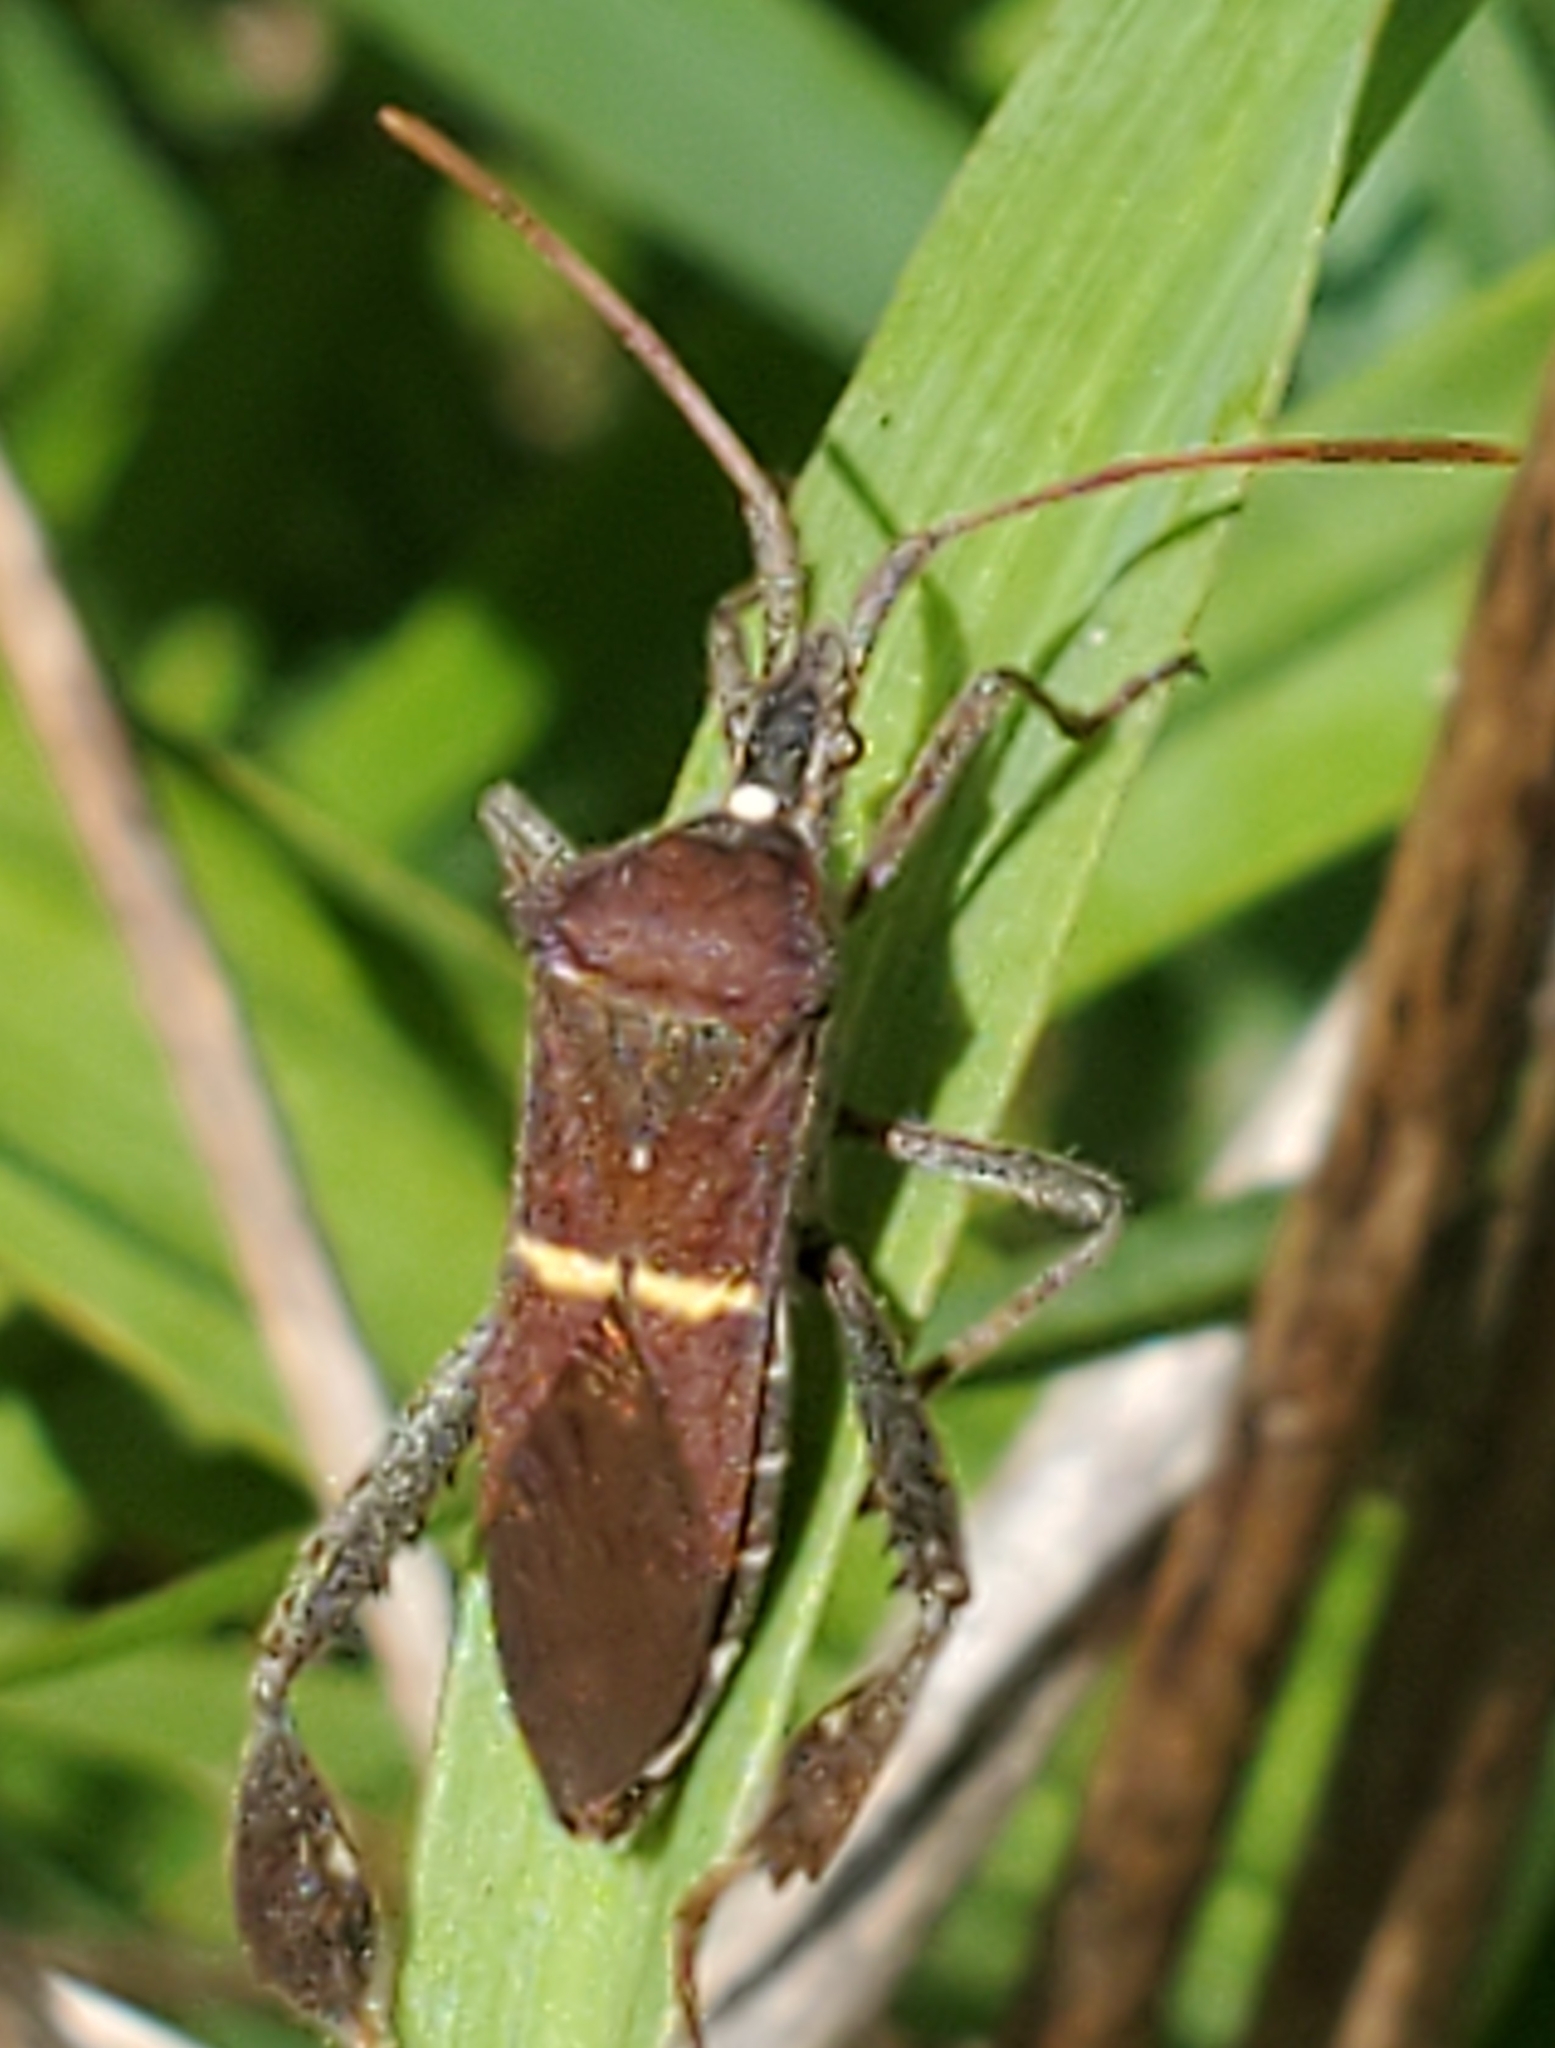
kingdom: Animalia
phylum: Arthropoda
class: Insecta
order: Hemiptera
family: Coreidae
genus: Leptoglossus
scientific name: Leptoglossus phyllopus
